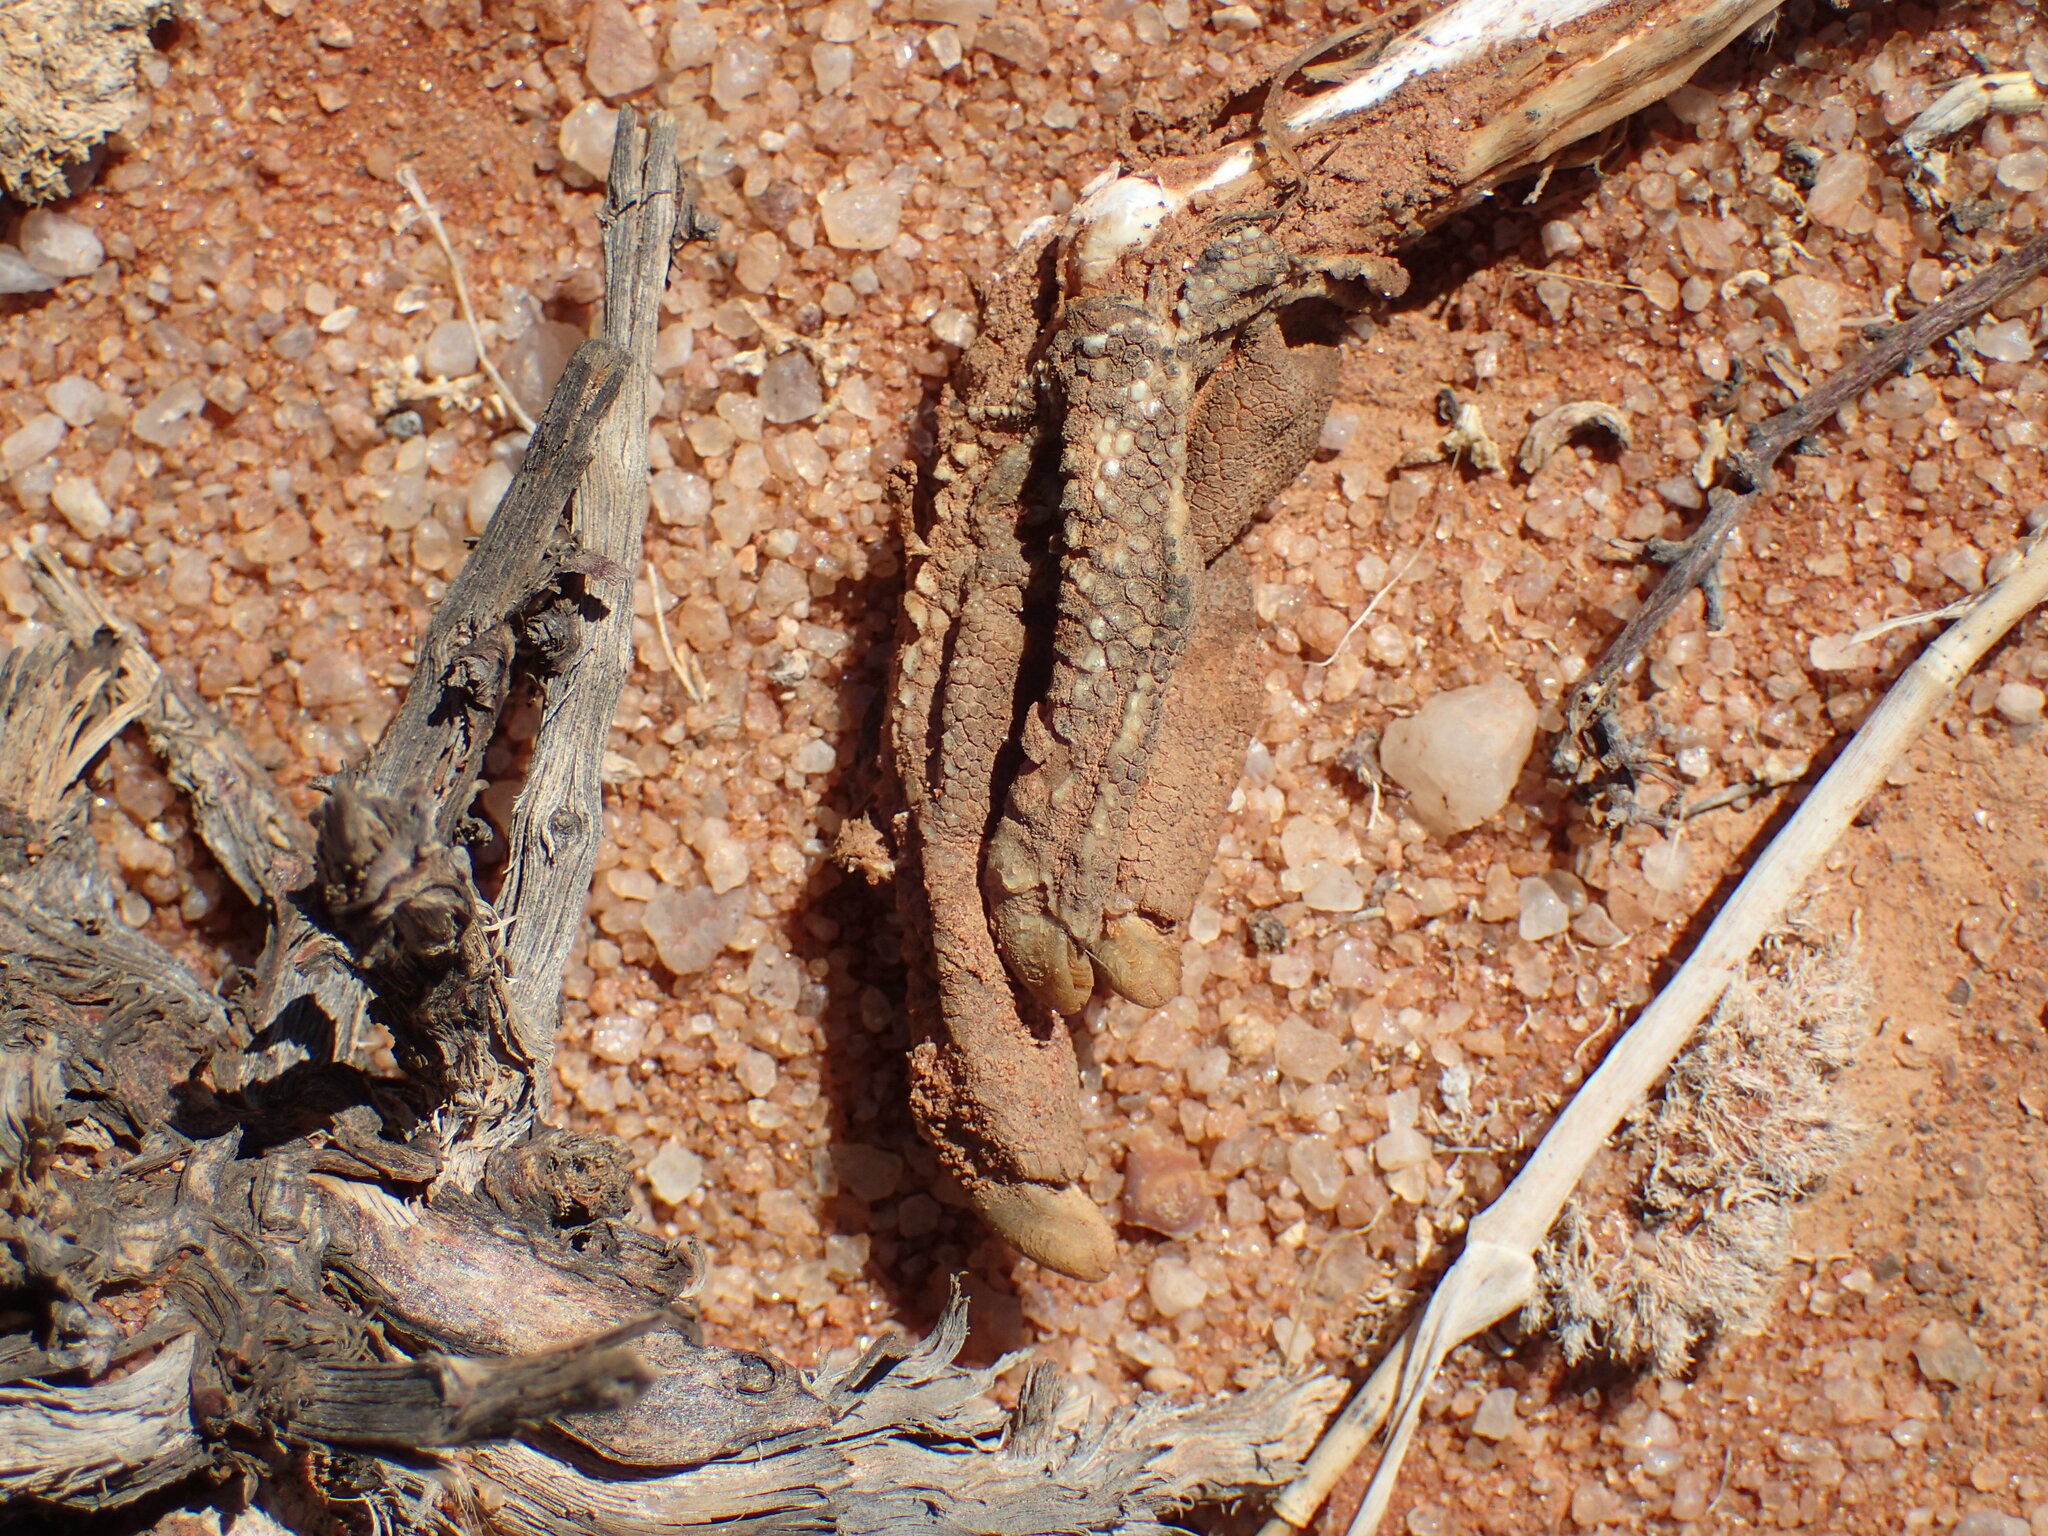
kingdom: Animalia
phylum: Chordata
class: Aves
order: Otidiformes
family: Otididae
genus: Afrotis
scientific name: Afrotis afraoides
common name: Northern black korhaan
